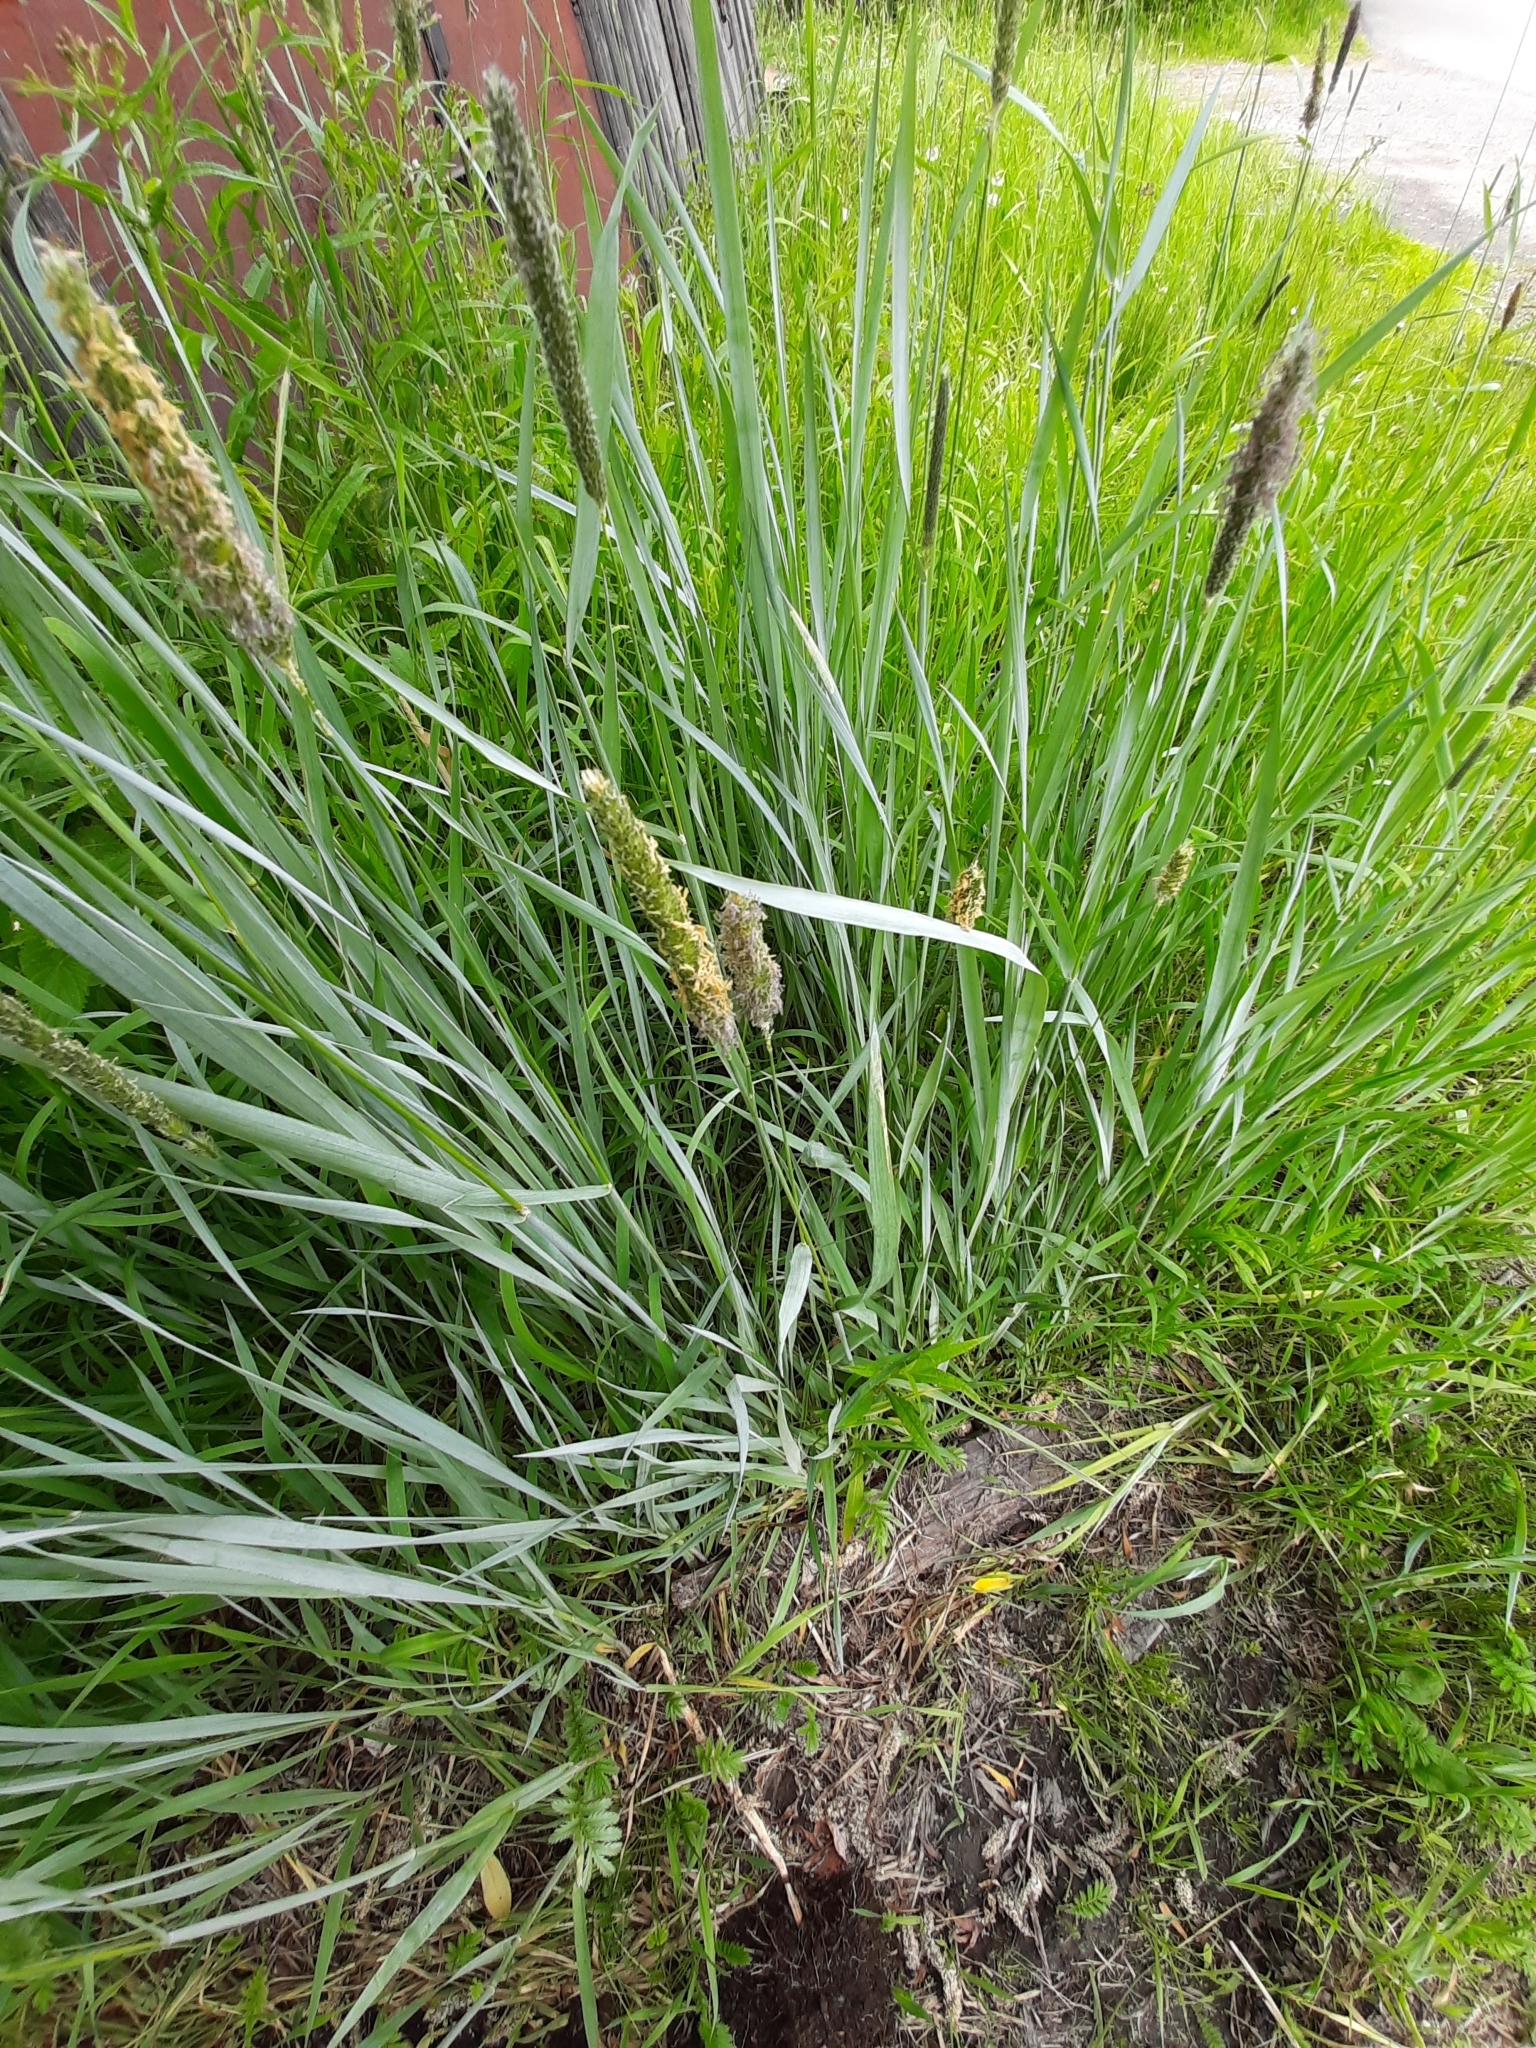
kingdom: Plantae
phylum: Tracheophyta
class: Liliopsida
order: Poales
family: Poaceae
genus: Alopecurus
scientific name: Alopecurus aequalis
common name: Orange foxtail
